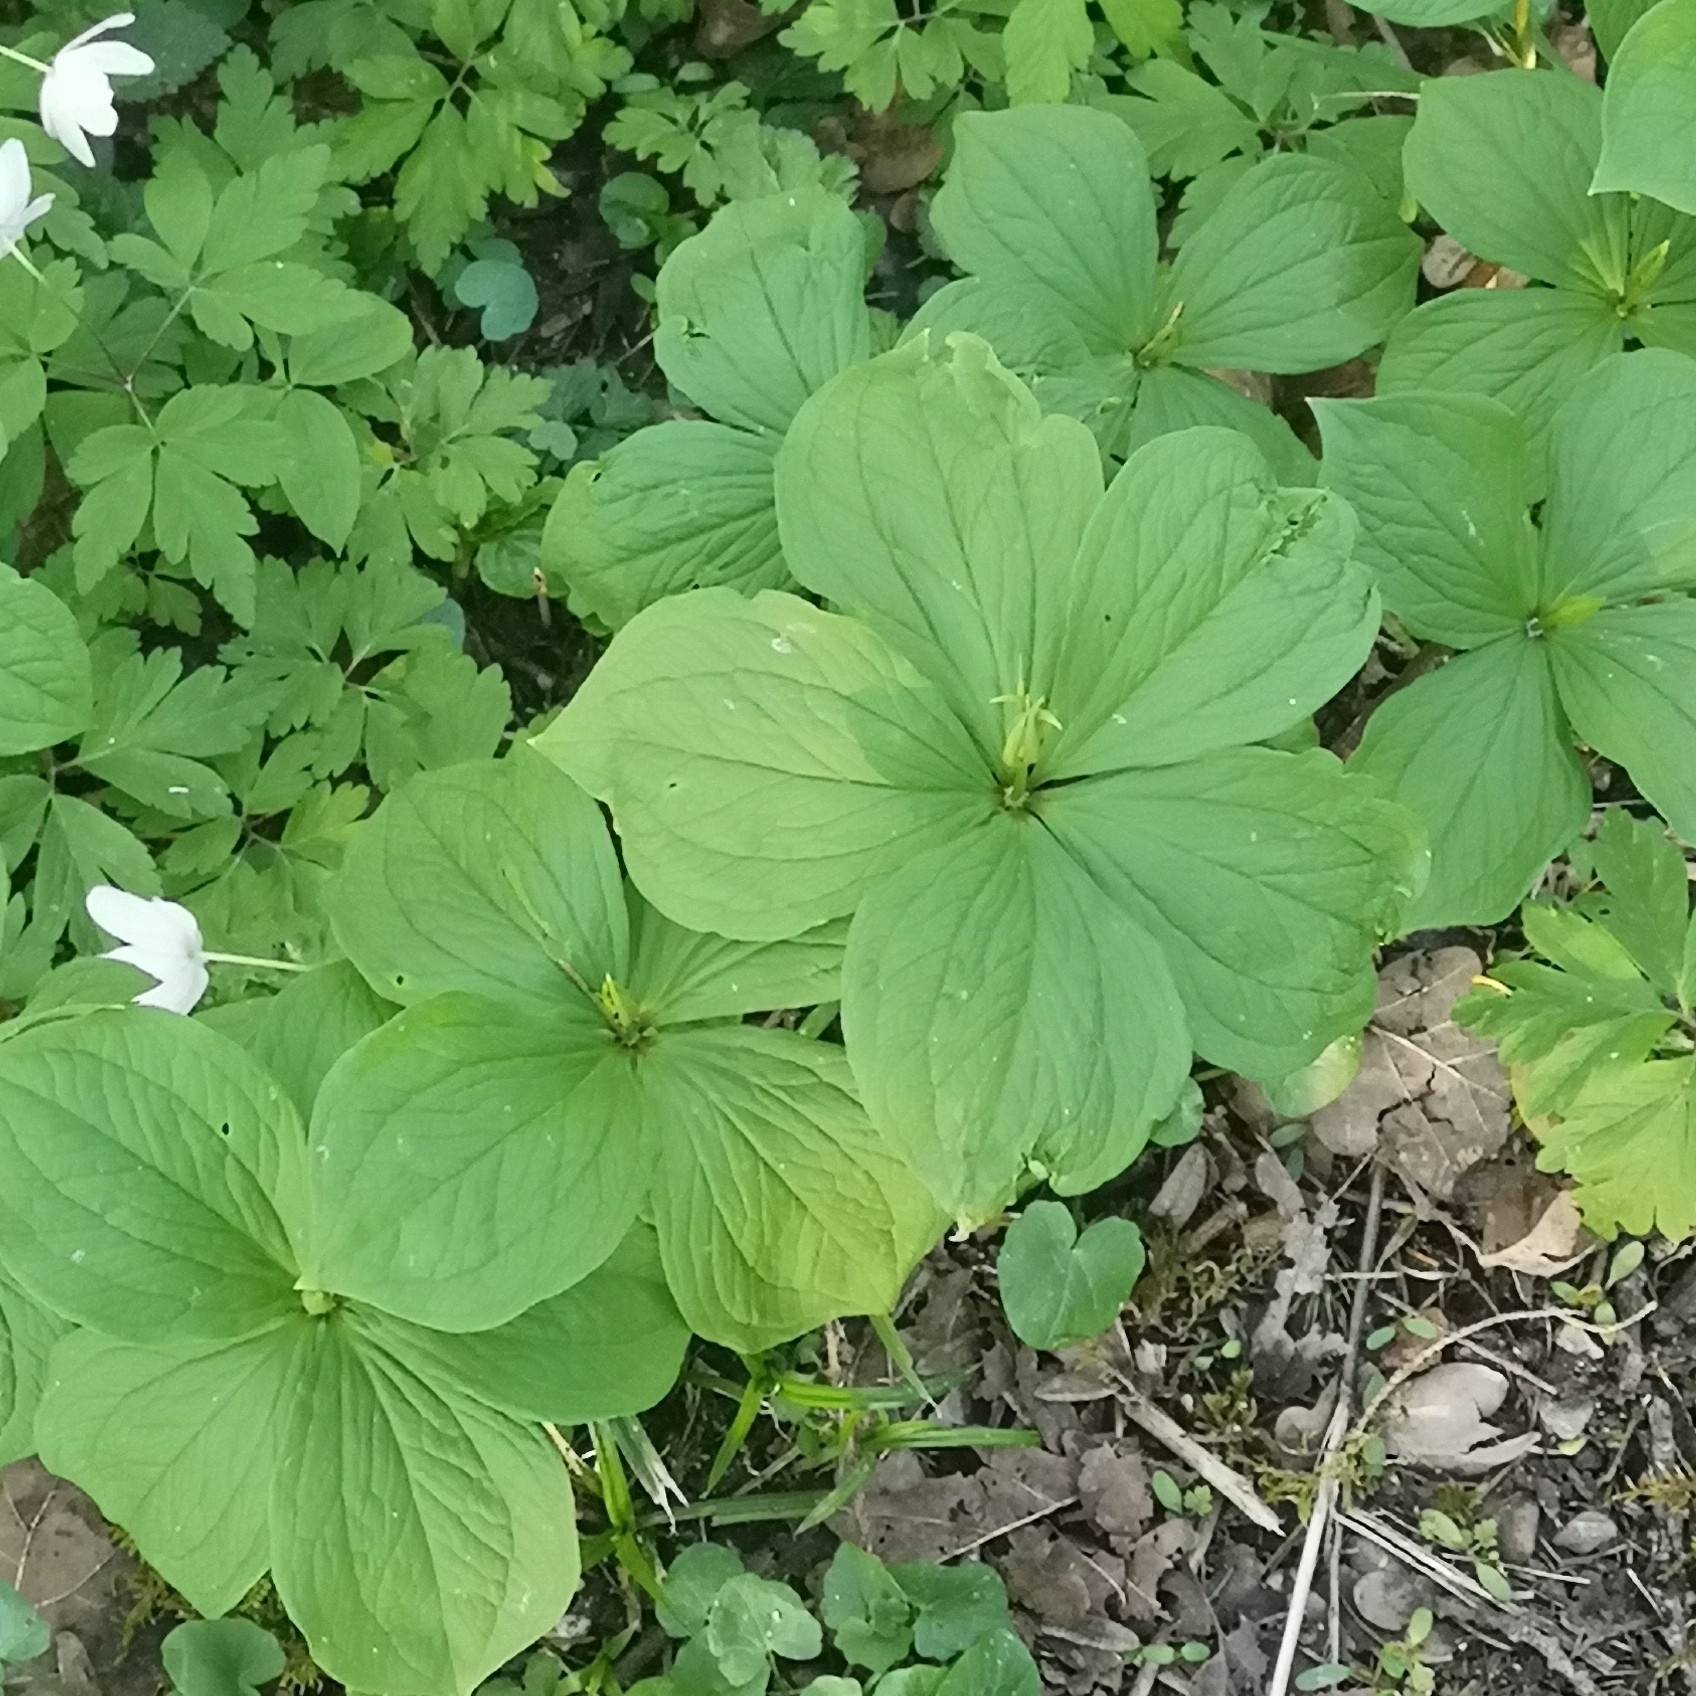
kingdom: Plantae
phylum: Tracheophyta
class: Liliopsida
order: Liliales
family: Melanthiaceae
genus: Paris
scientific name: Paris quadrifolia
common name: Herb-paris
